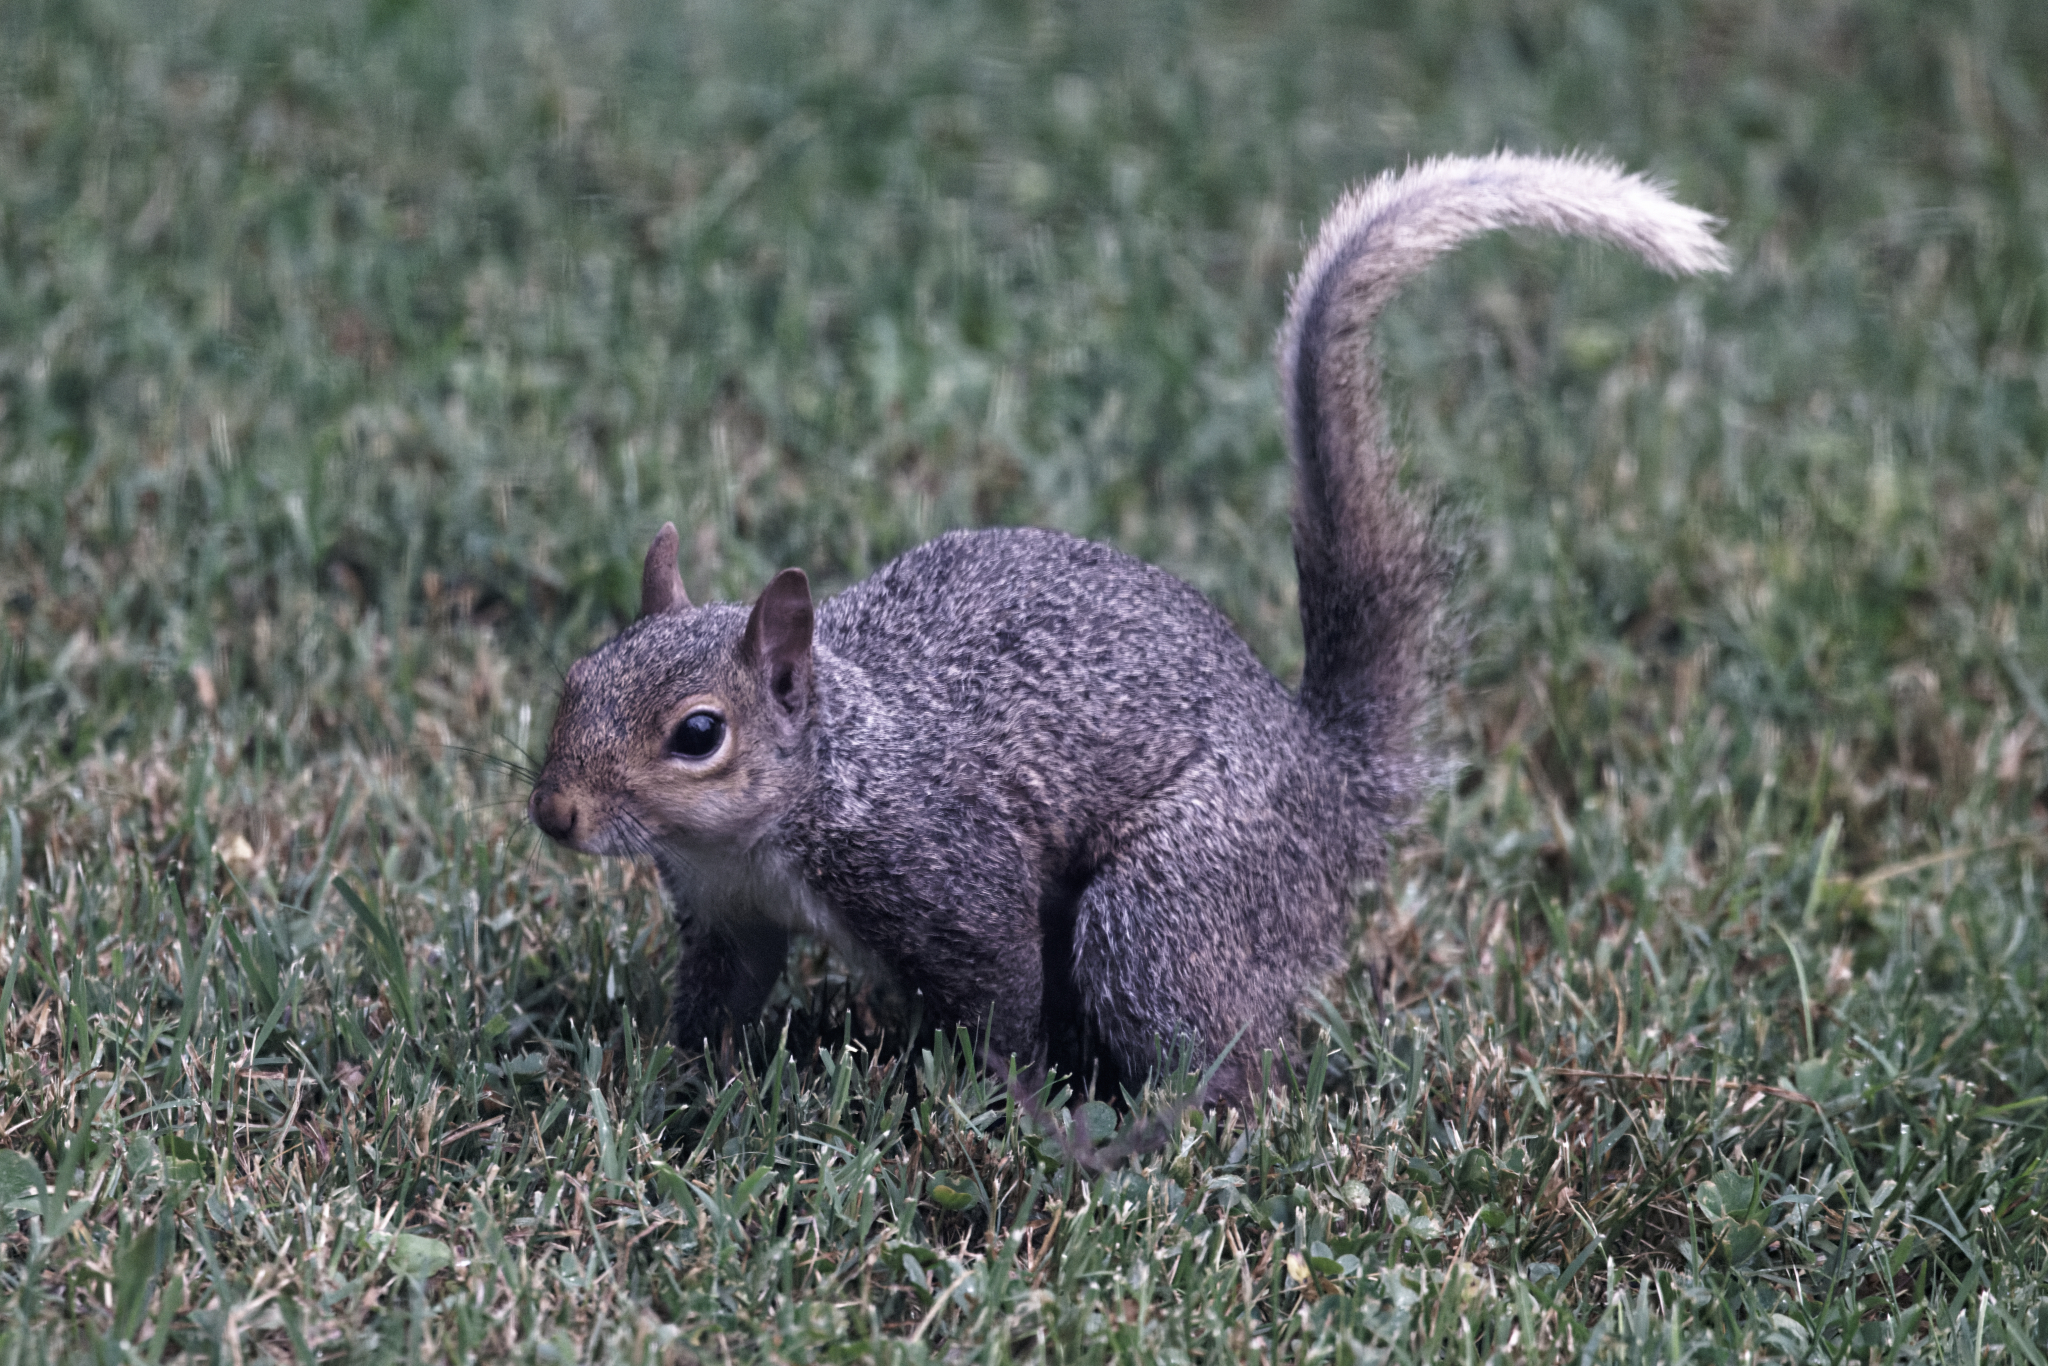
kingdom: Animalia
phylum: Chordata
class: Mammalia
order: Rodentia
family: Sciuridae
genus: Sciurus
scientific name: Sciurus carolinensis
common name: Eastern gray squirrel
